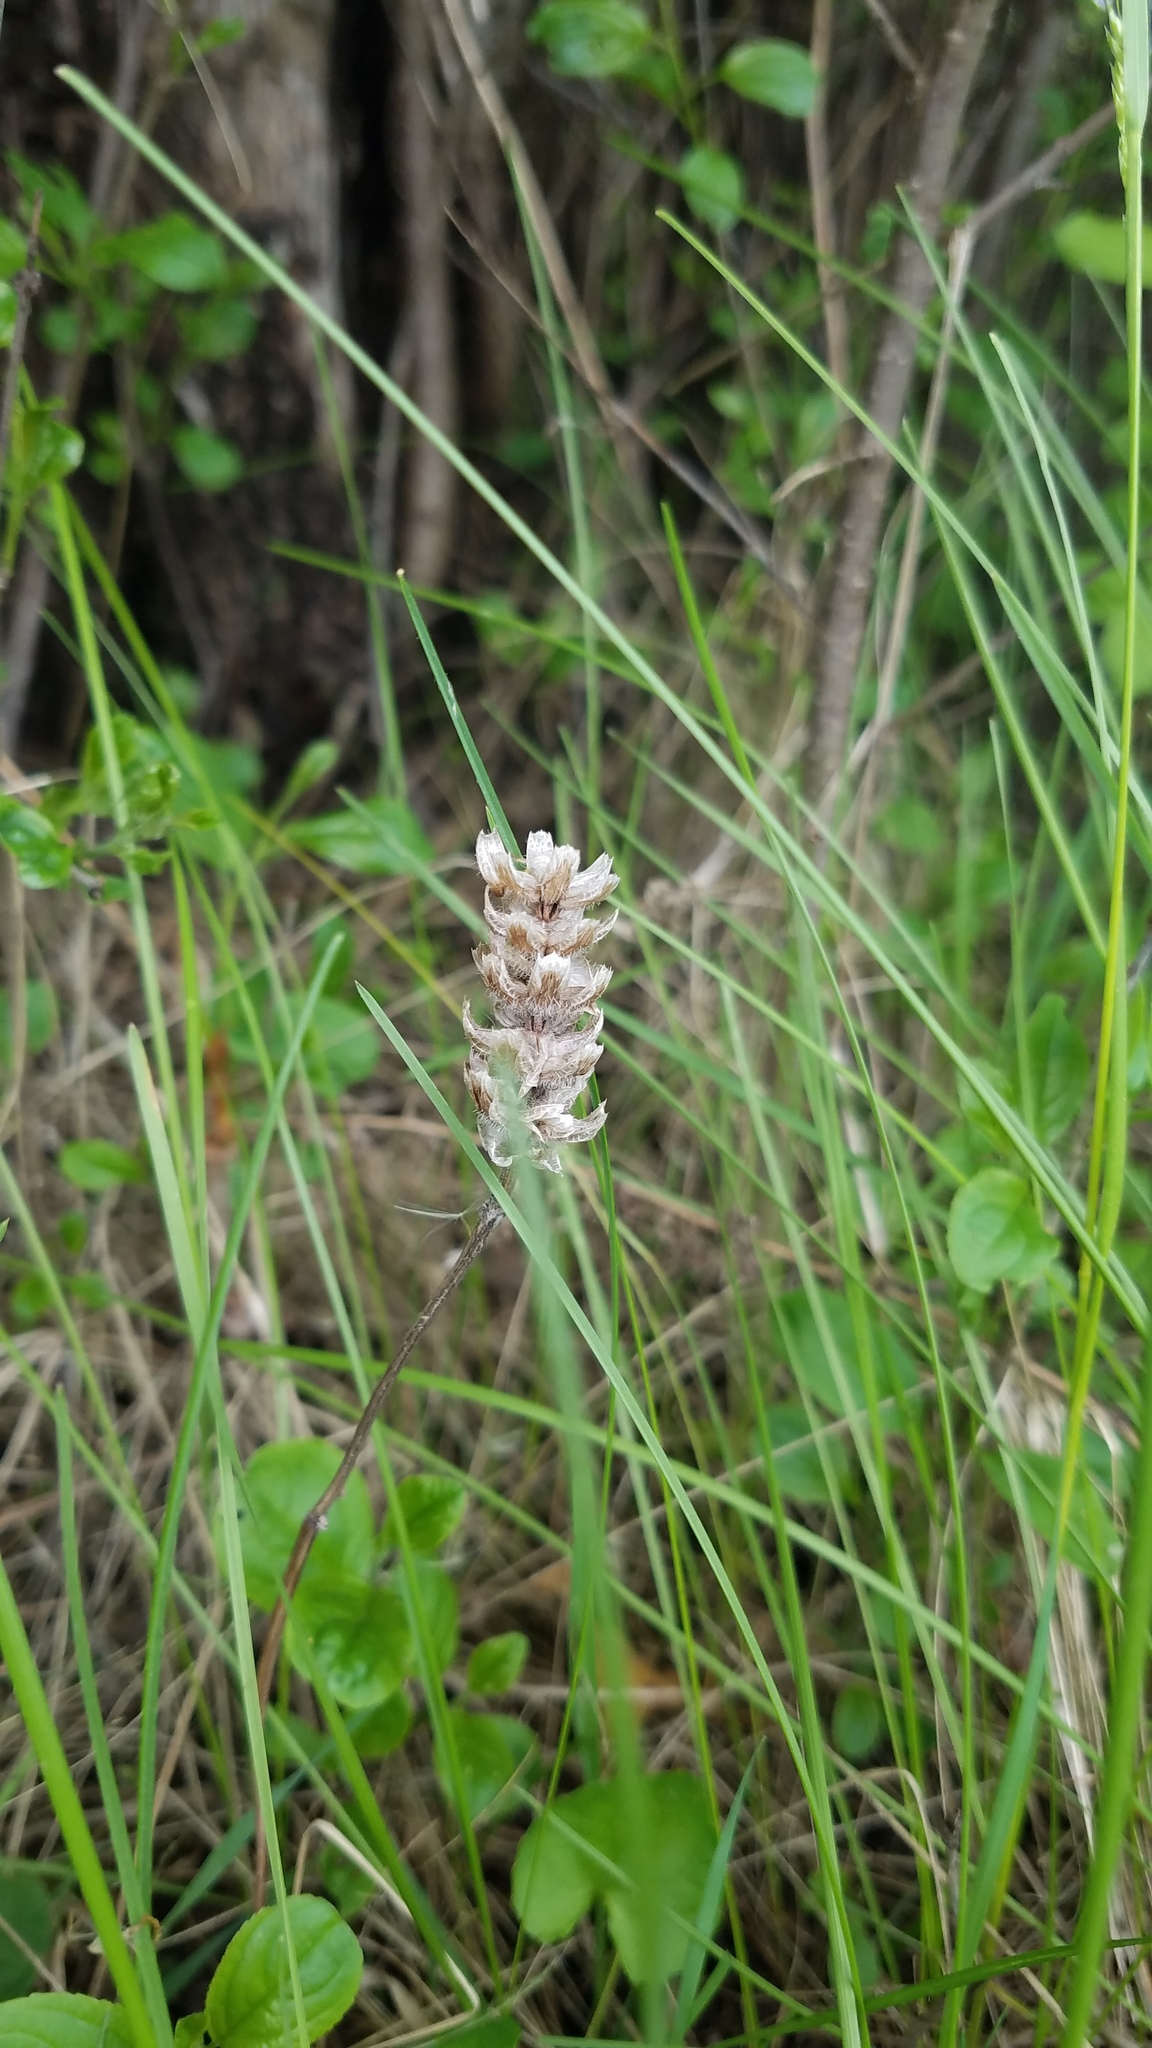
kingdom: Plantae
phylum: Tracheophyta
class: Magnoliopsida
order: Lamiales
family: Lamiaceae
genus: Prunella
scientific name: Prunella vulgaris
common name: Heal-all
